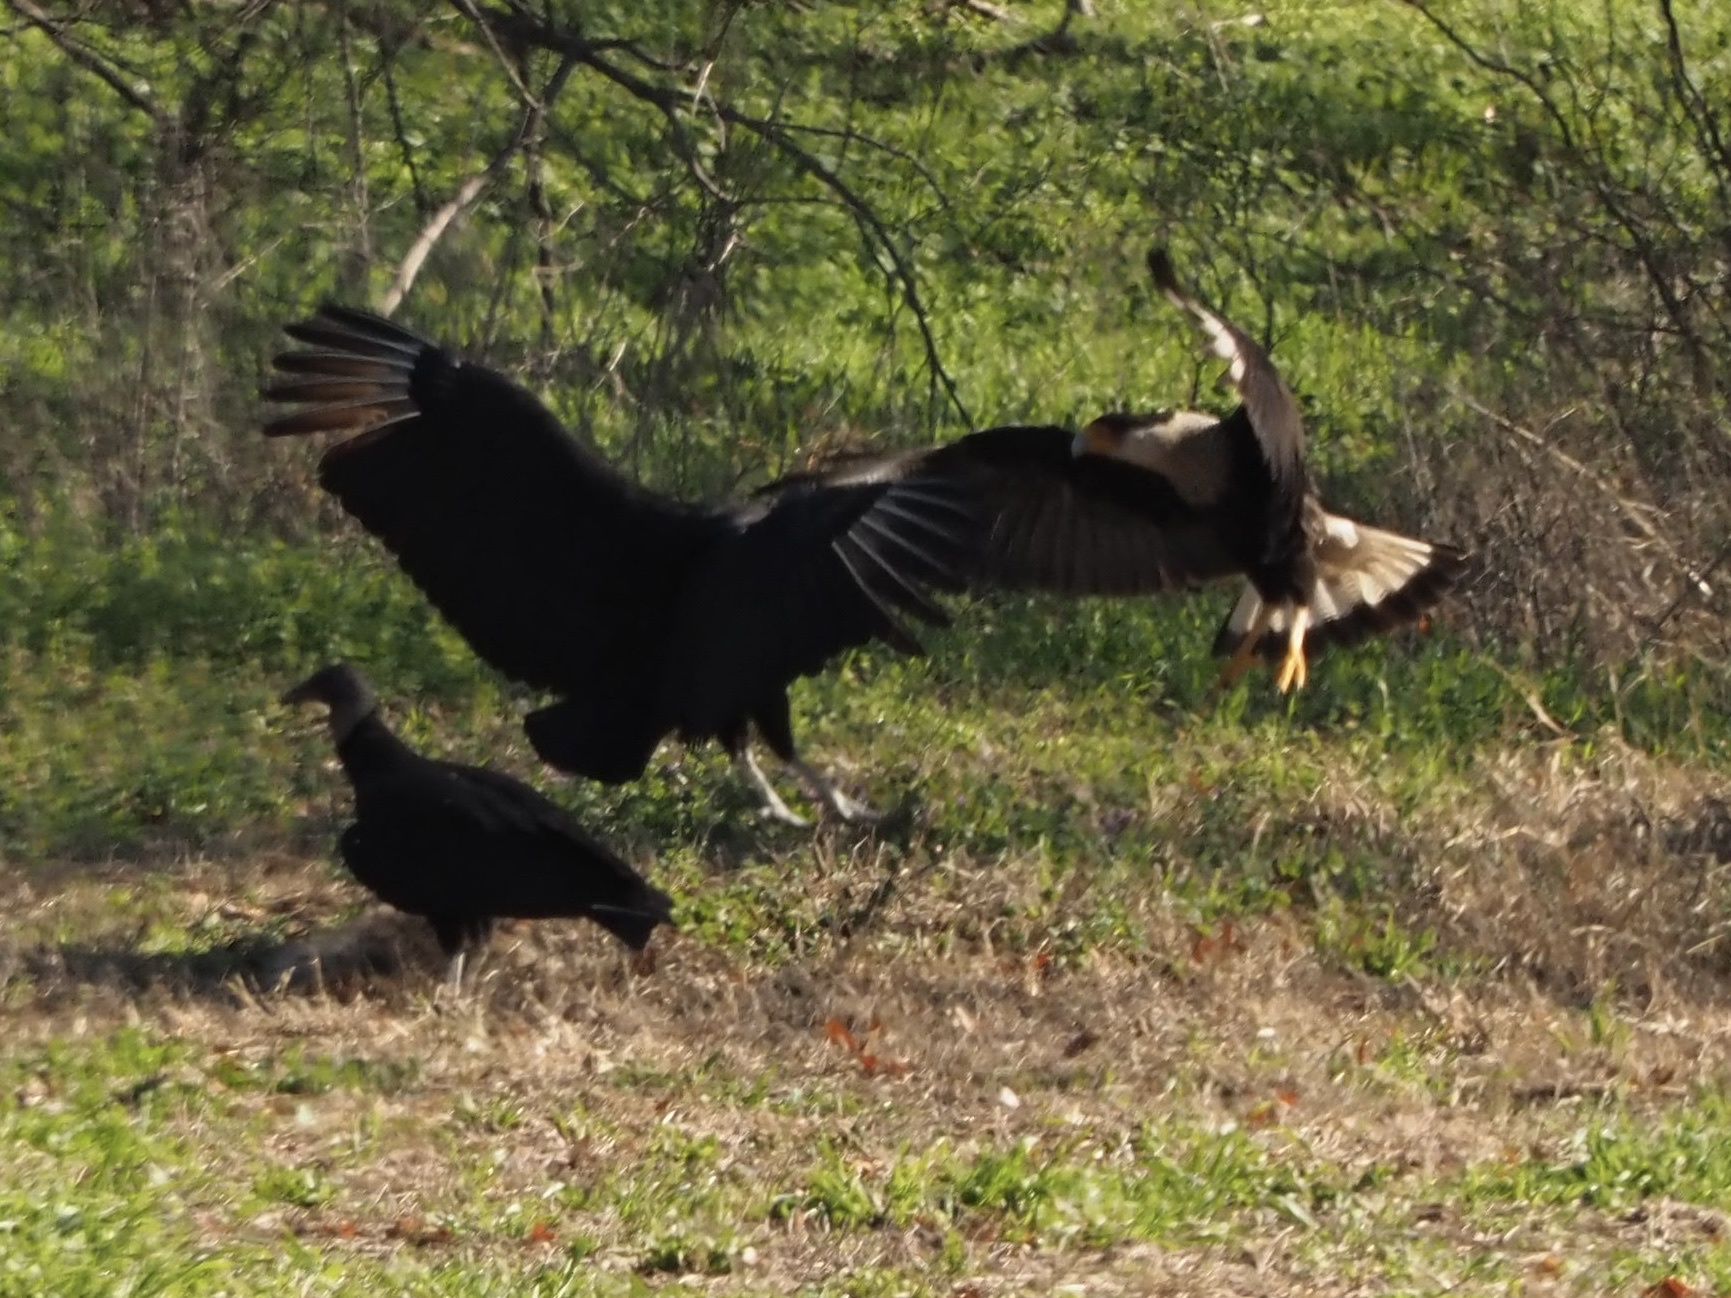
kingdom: Animalia
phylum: Chordata
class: Aves
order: Accipitriformes
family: Cathartidae
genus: Coragyps
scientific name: Coragyps atratus
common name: Black vulture
